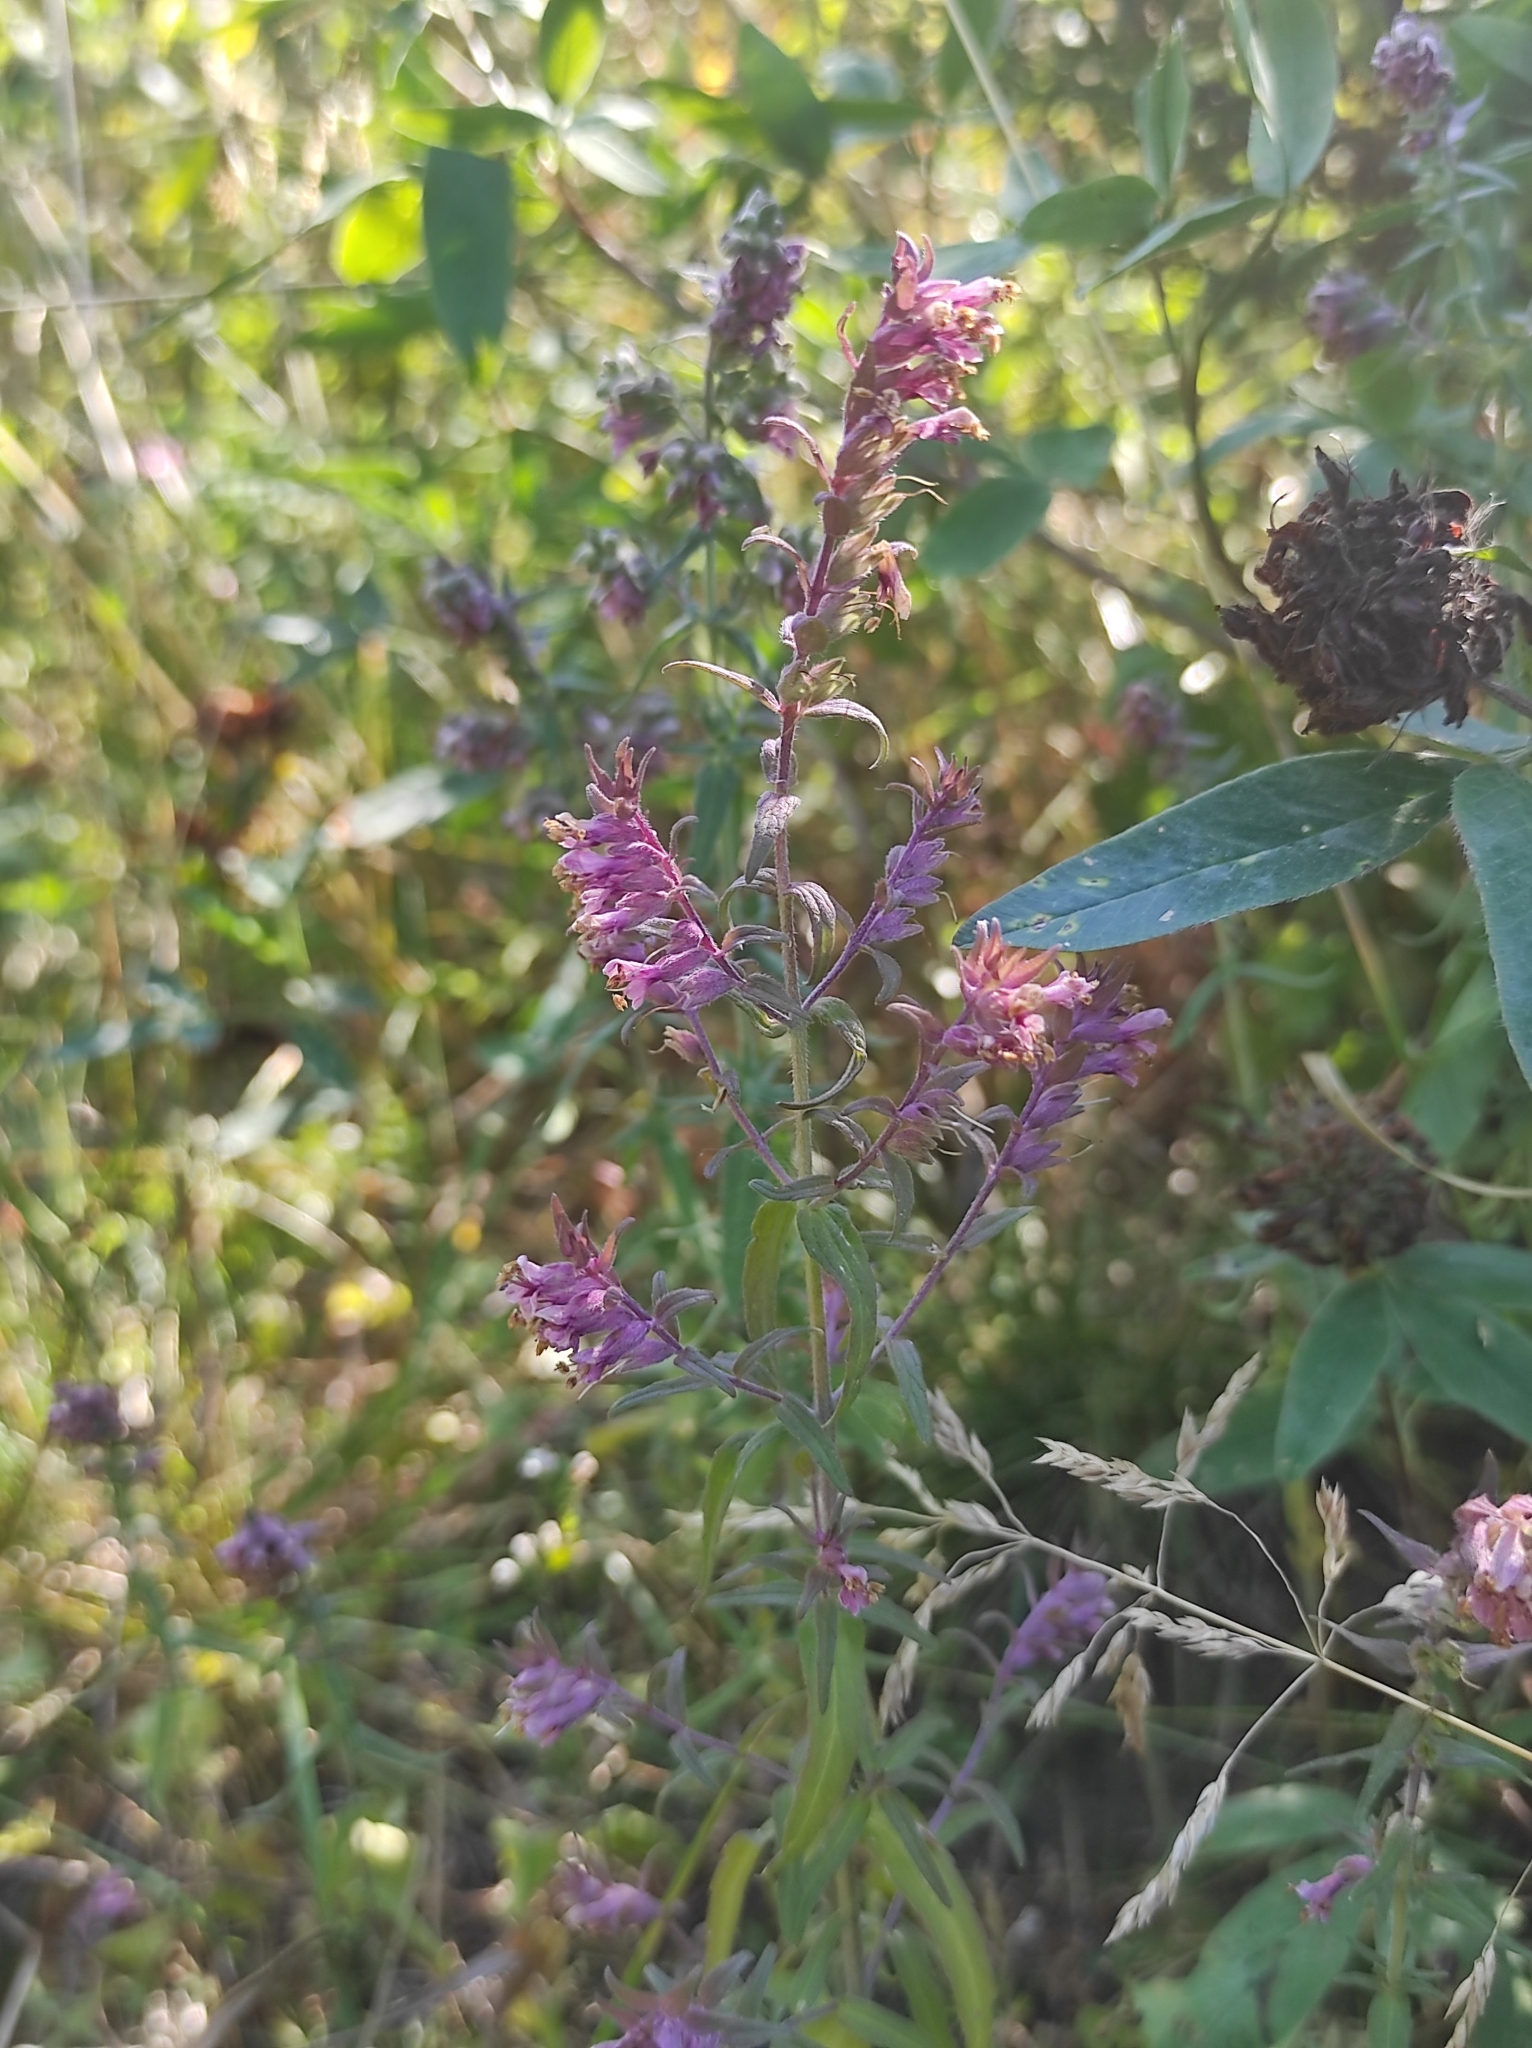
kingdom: Plantae
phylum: Tracheophyta
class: Magnoliopsida
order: Lamiales
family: Orobanchaceae
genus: Odontites
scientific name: Odontites vulgaris
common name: Broomrape
